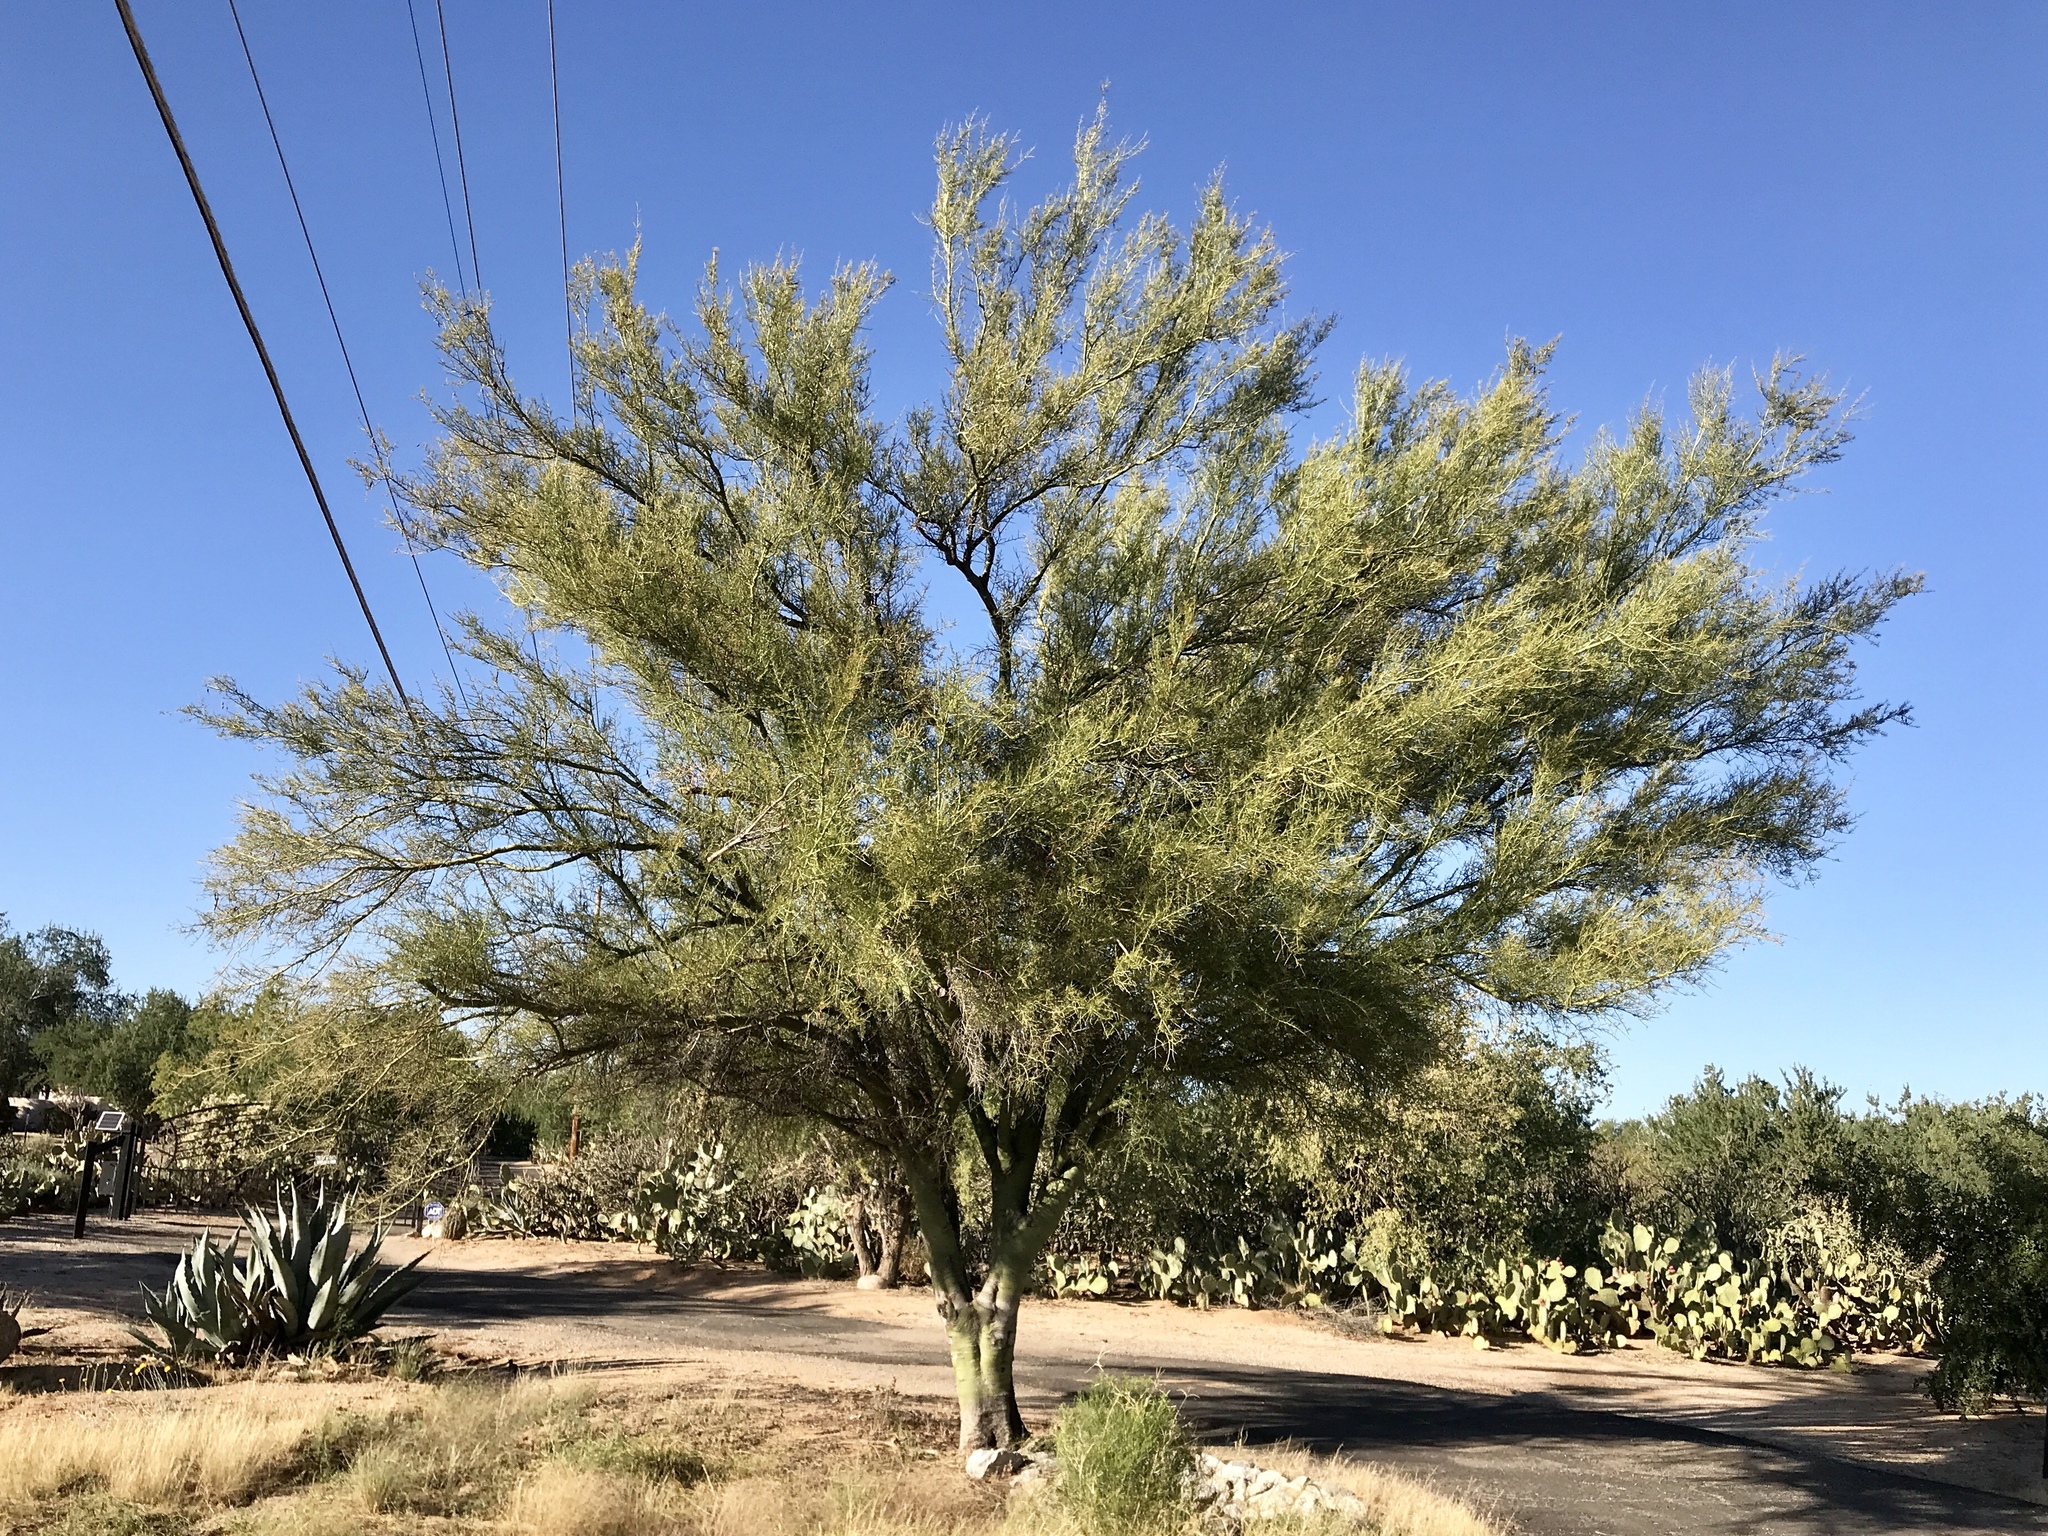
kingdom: Plantae
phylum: Tracheophyta
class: Magnoliopsida
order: Fabales
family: Fabaceae
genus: Parkinsonia
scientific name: Parkinsonia microphylla
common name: Yellow paloverde
